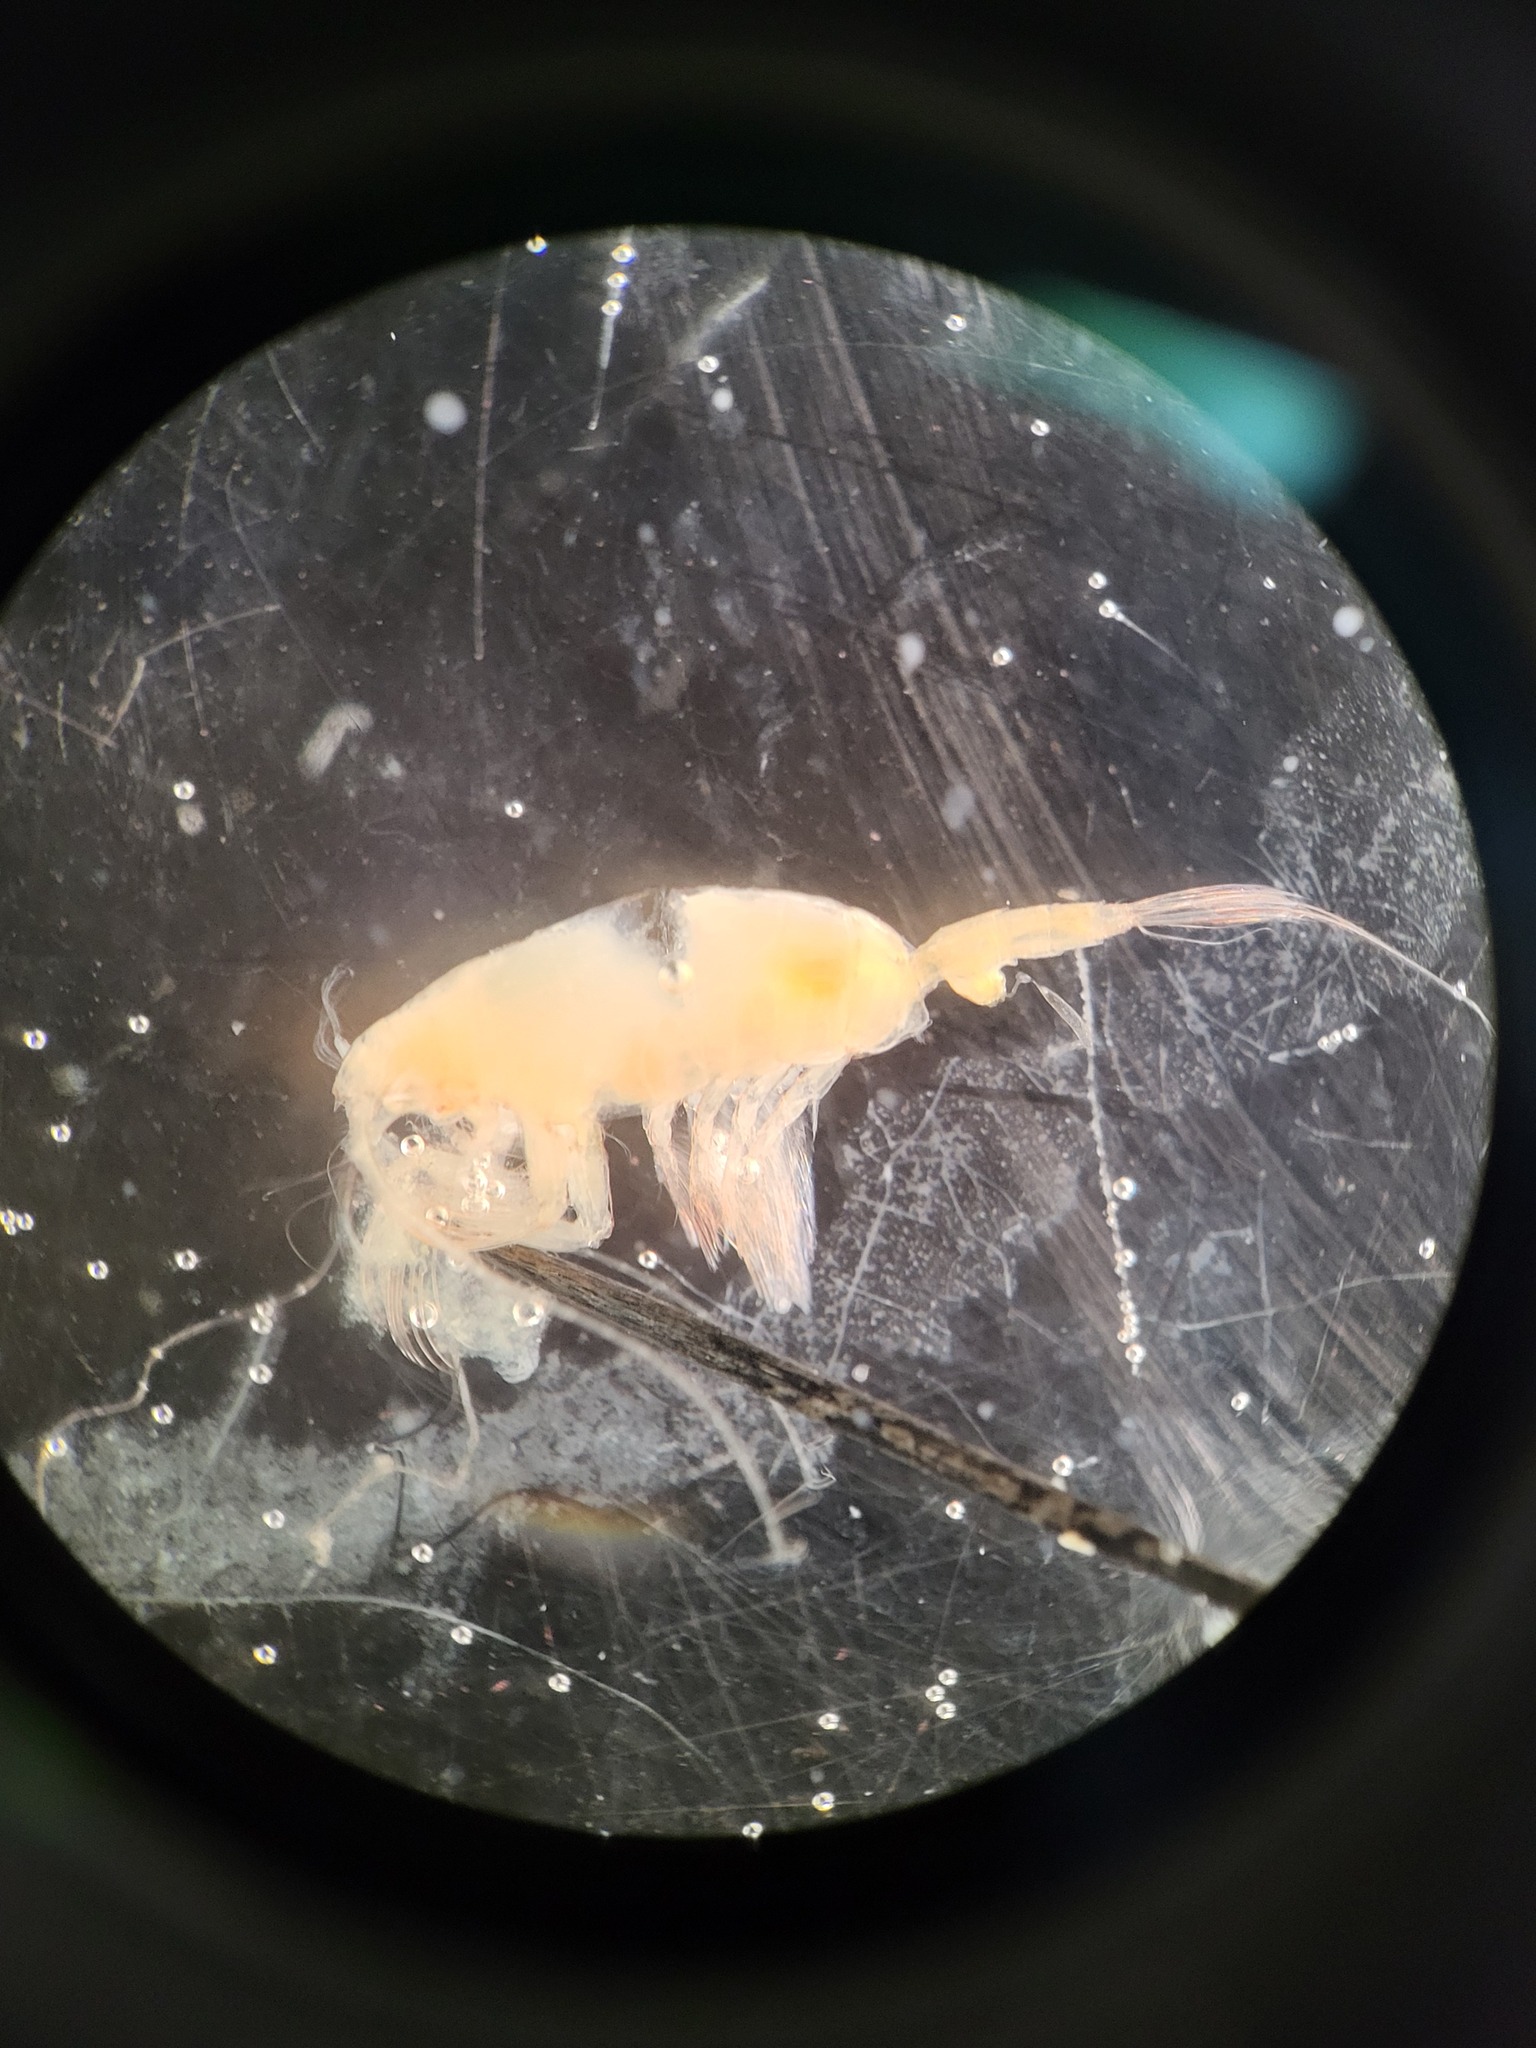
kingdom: Animalia
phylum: Arthropoda
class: Copepoda
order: Calanoida
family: Euchaetidae
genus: Paraeuchaeta
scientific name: Paraeuchaeta glacialis
